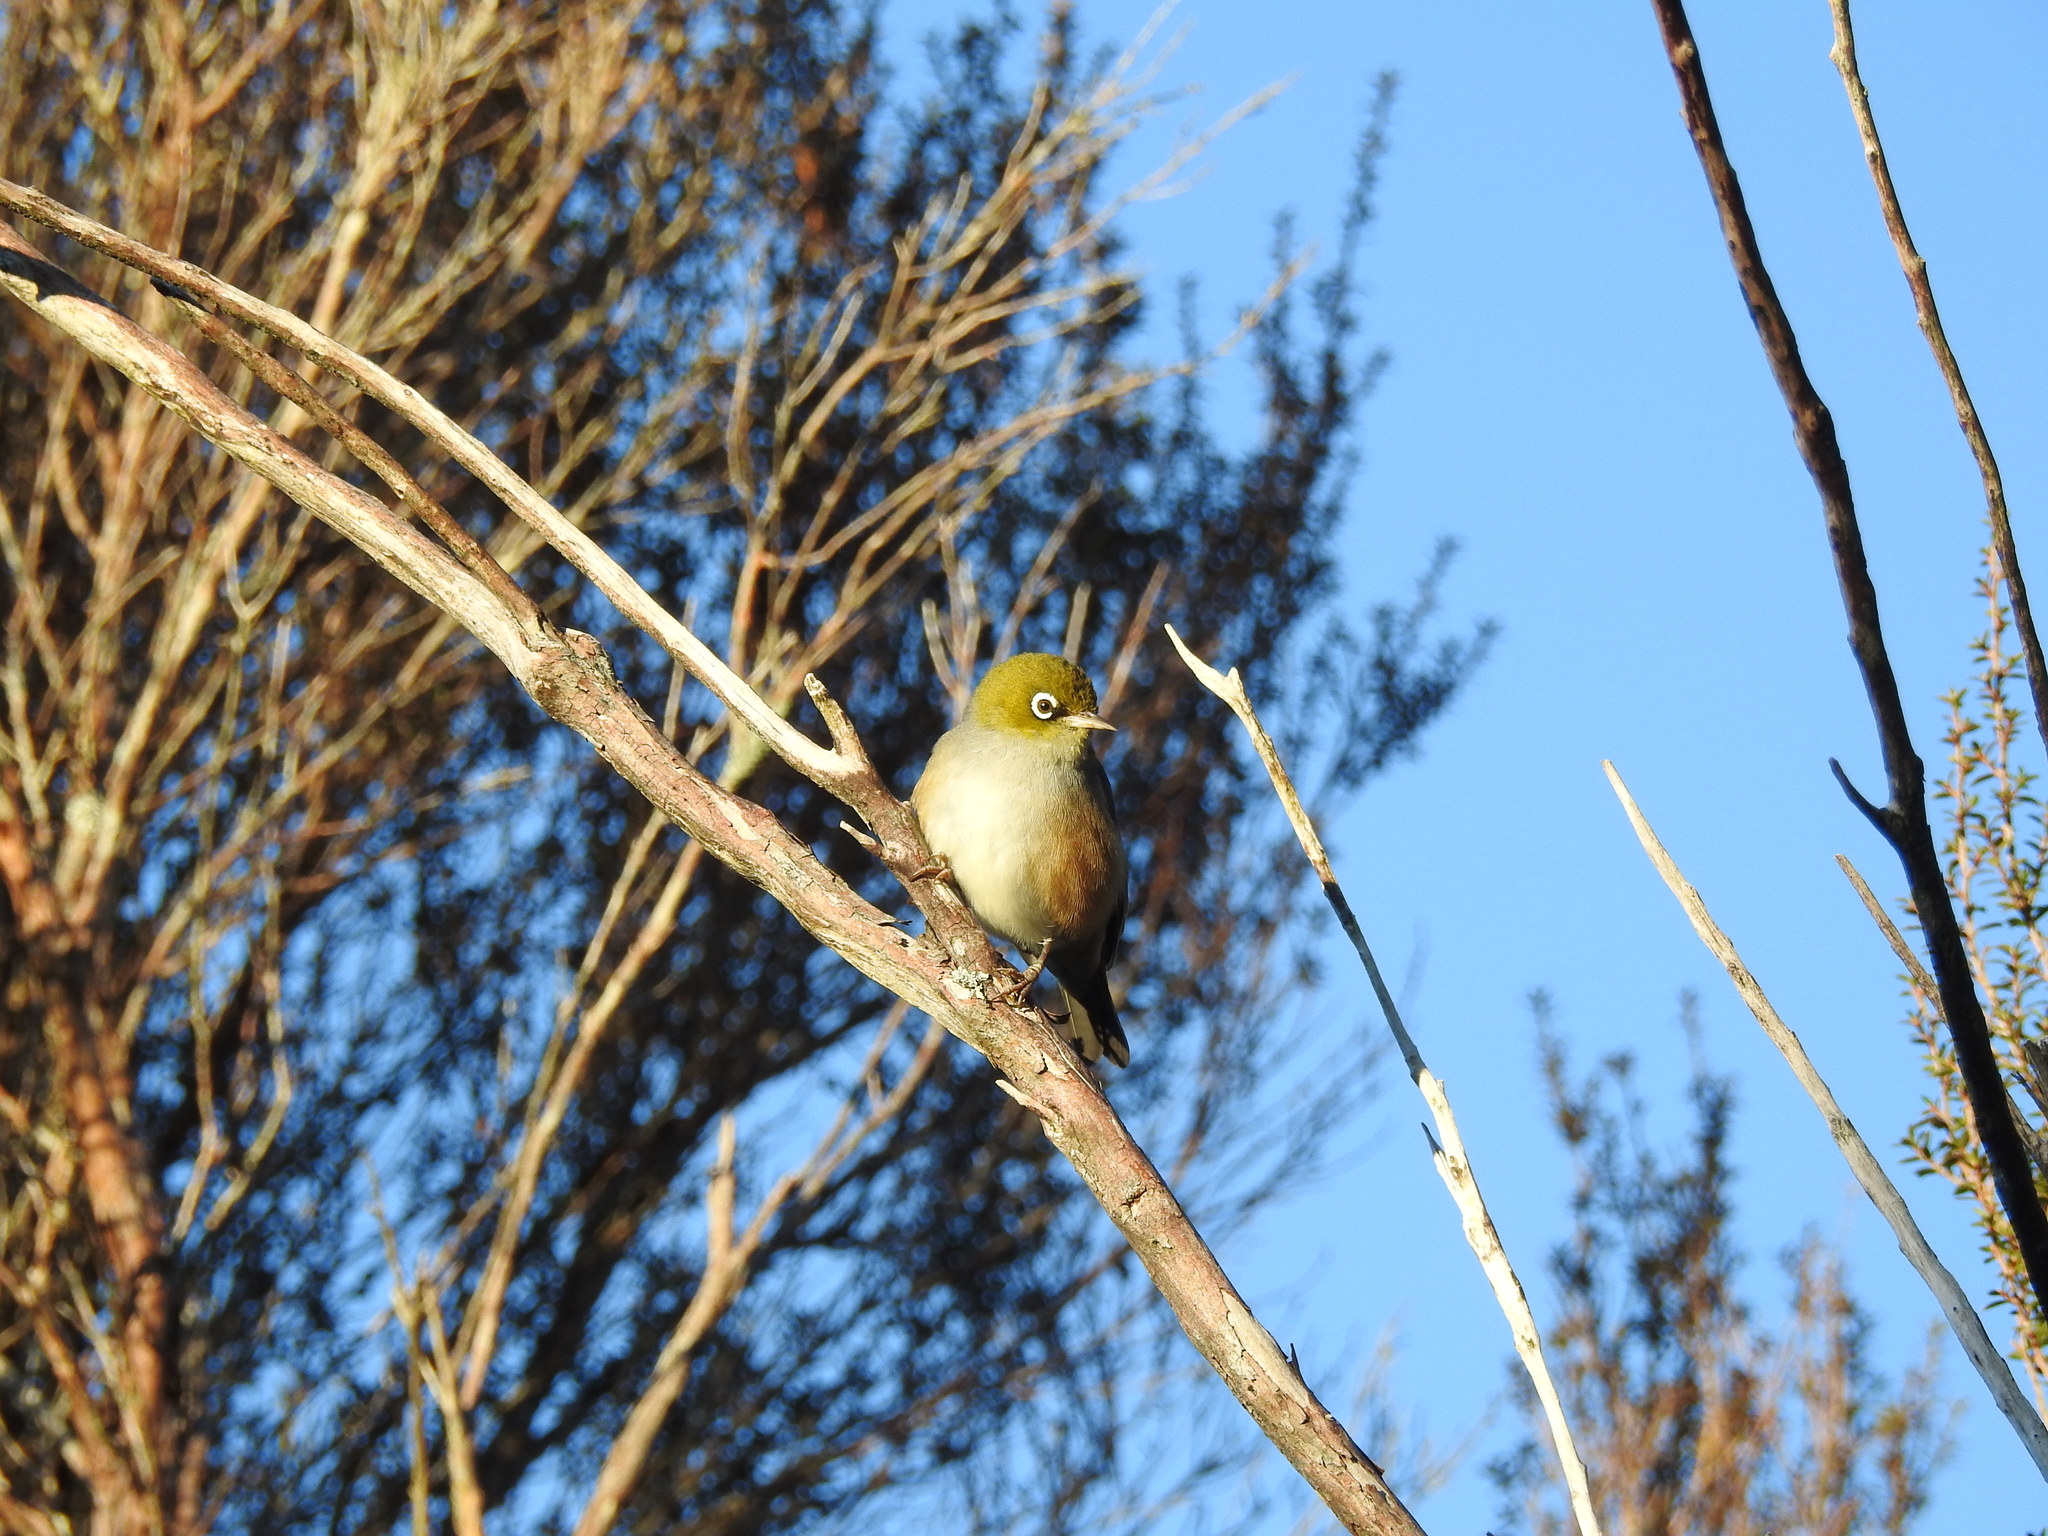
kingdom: Animalia
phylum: Chordata
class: Aves
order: Passeriformes
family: Zosteropidae
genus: Zosterops
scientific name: Zosterops lateralis
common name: Silvereye
